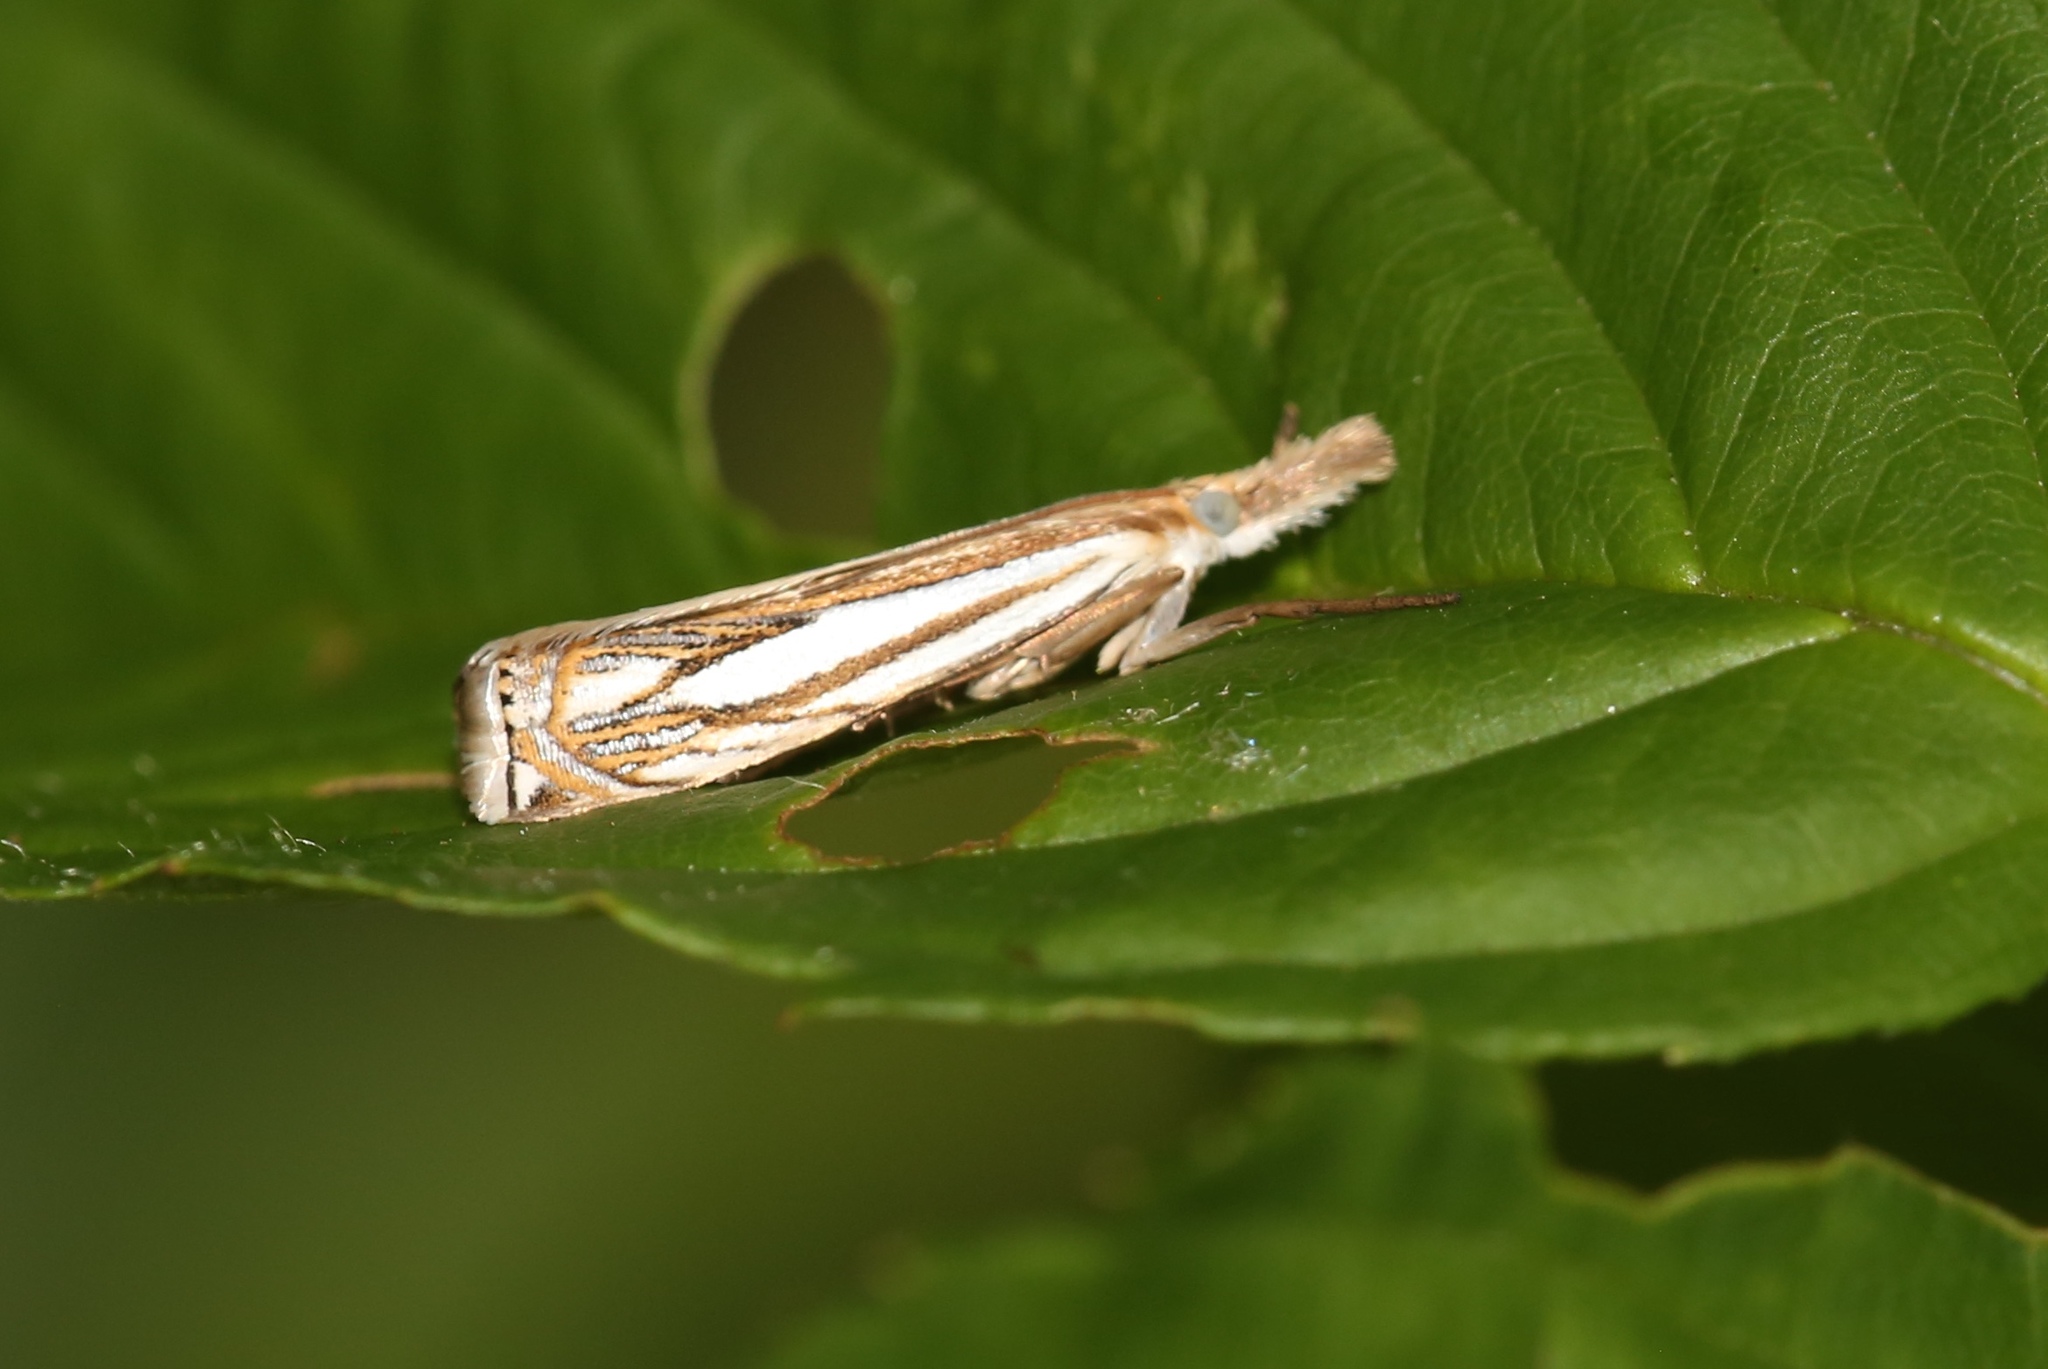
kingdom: Animalia
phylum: Arthropoda
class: Insecta
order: Lepidoptera
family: Crambidae
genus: Crambus
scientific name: Crambus saltuellus
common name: Pasture grass-veneer
